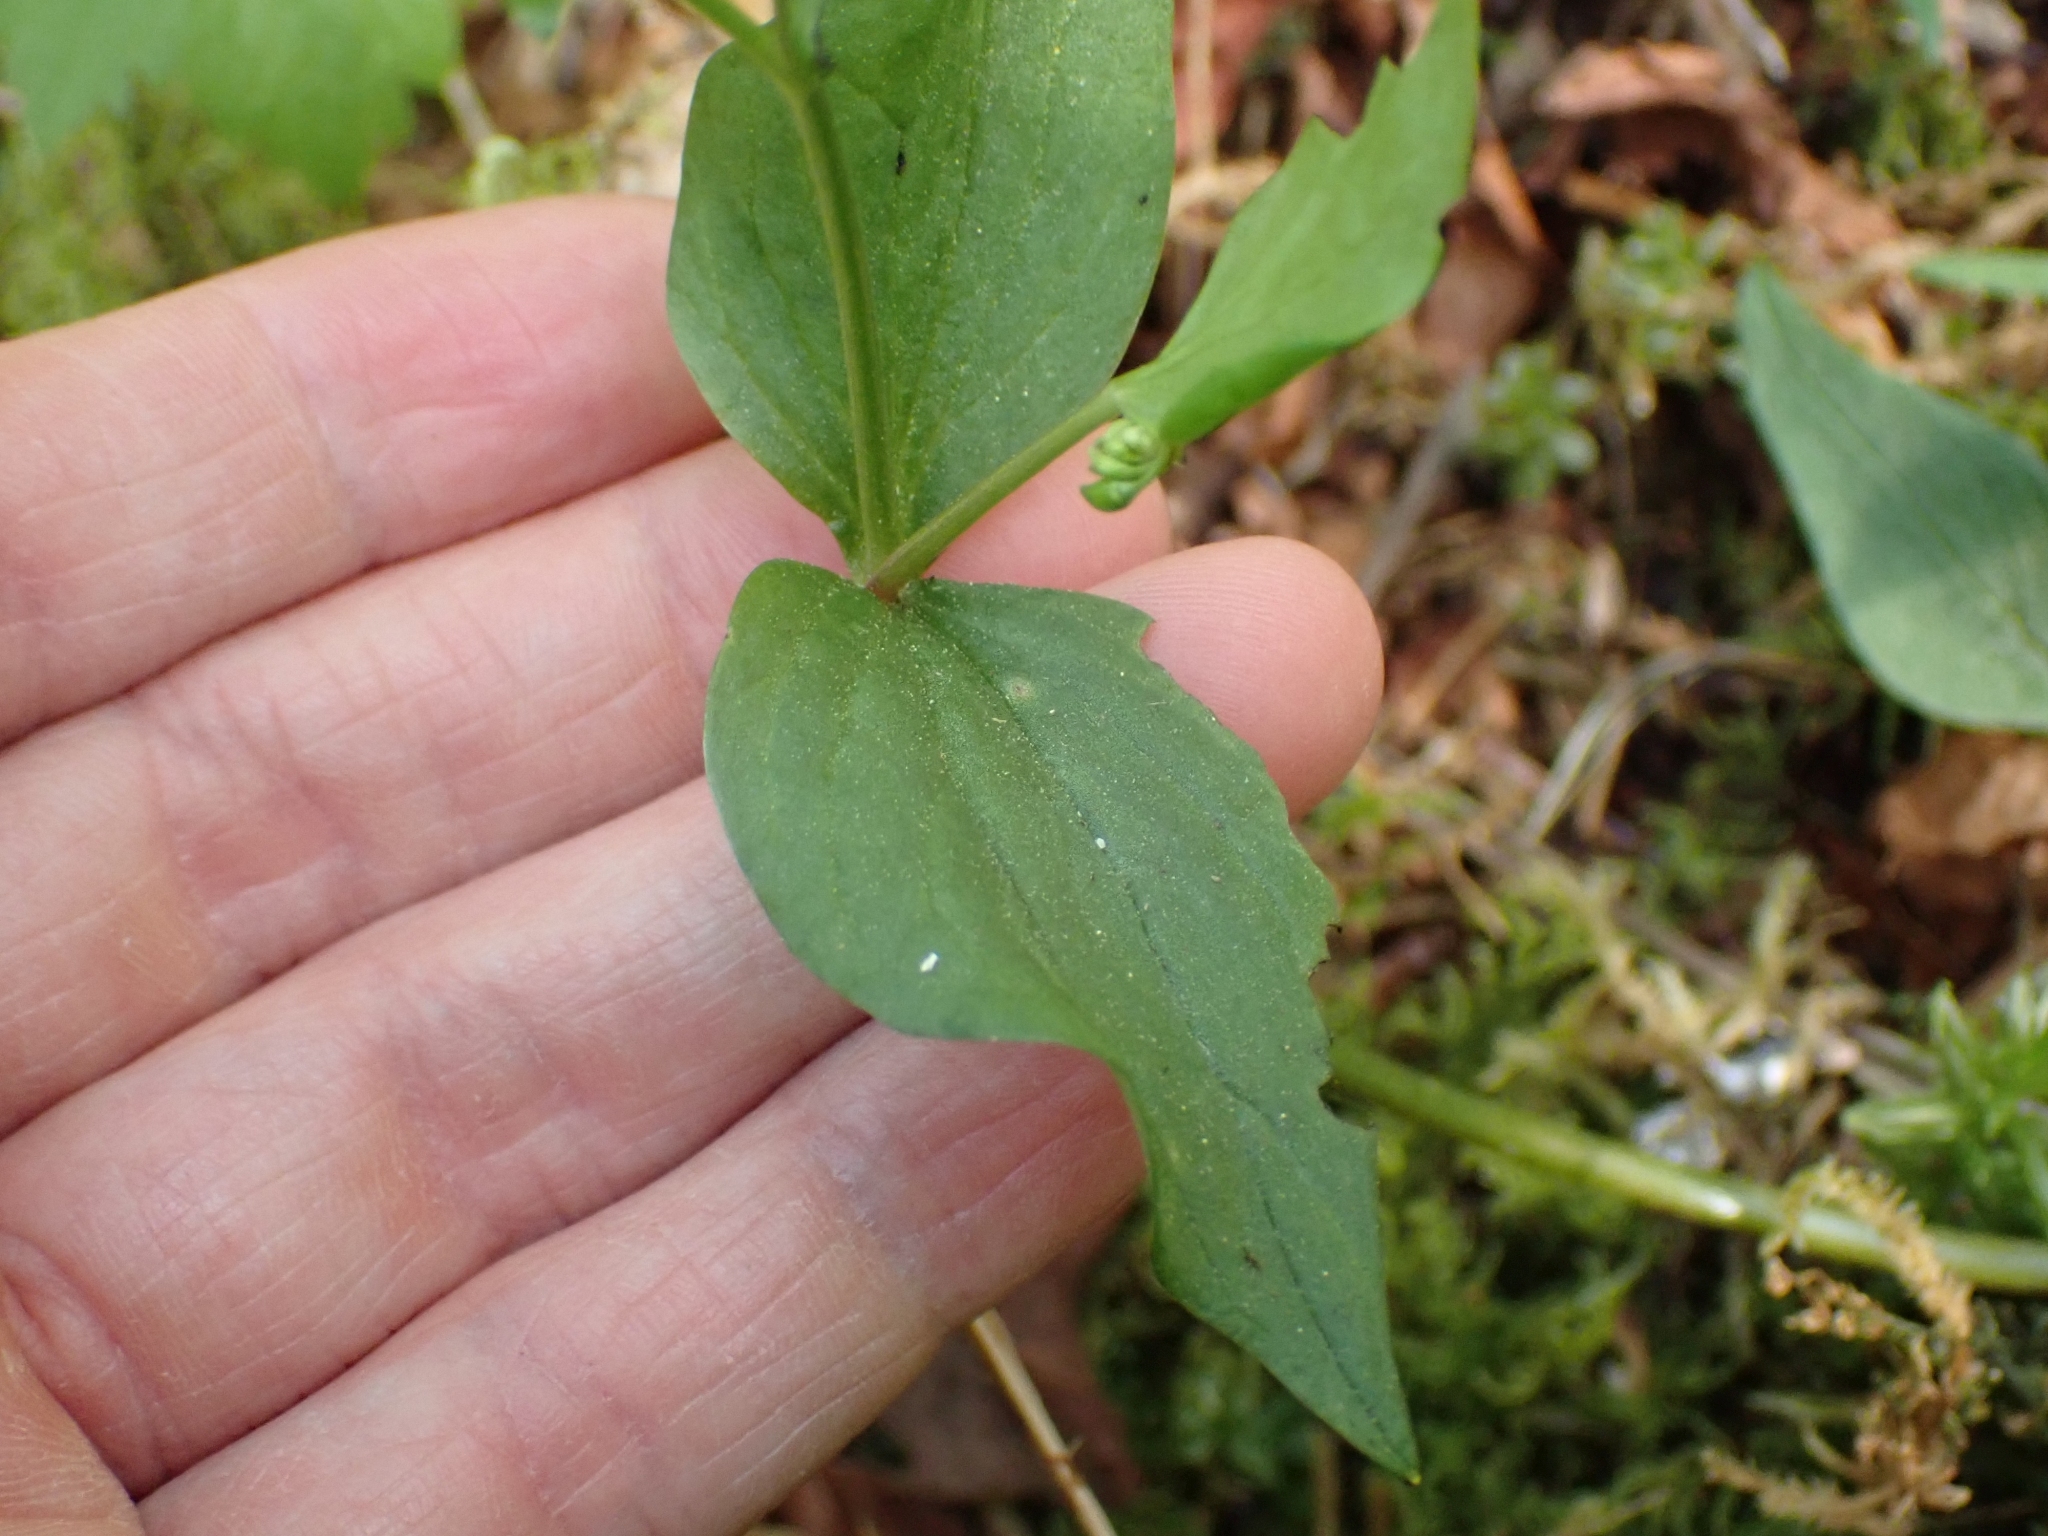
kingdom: Plantae
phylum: Tracheophyta
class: Magnoliopsida
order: Caryophyllales
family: Montiaceae
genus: Claytonia
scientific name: Claytonia sibirica
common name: Pink purslane
